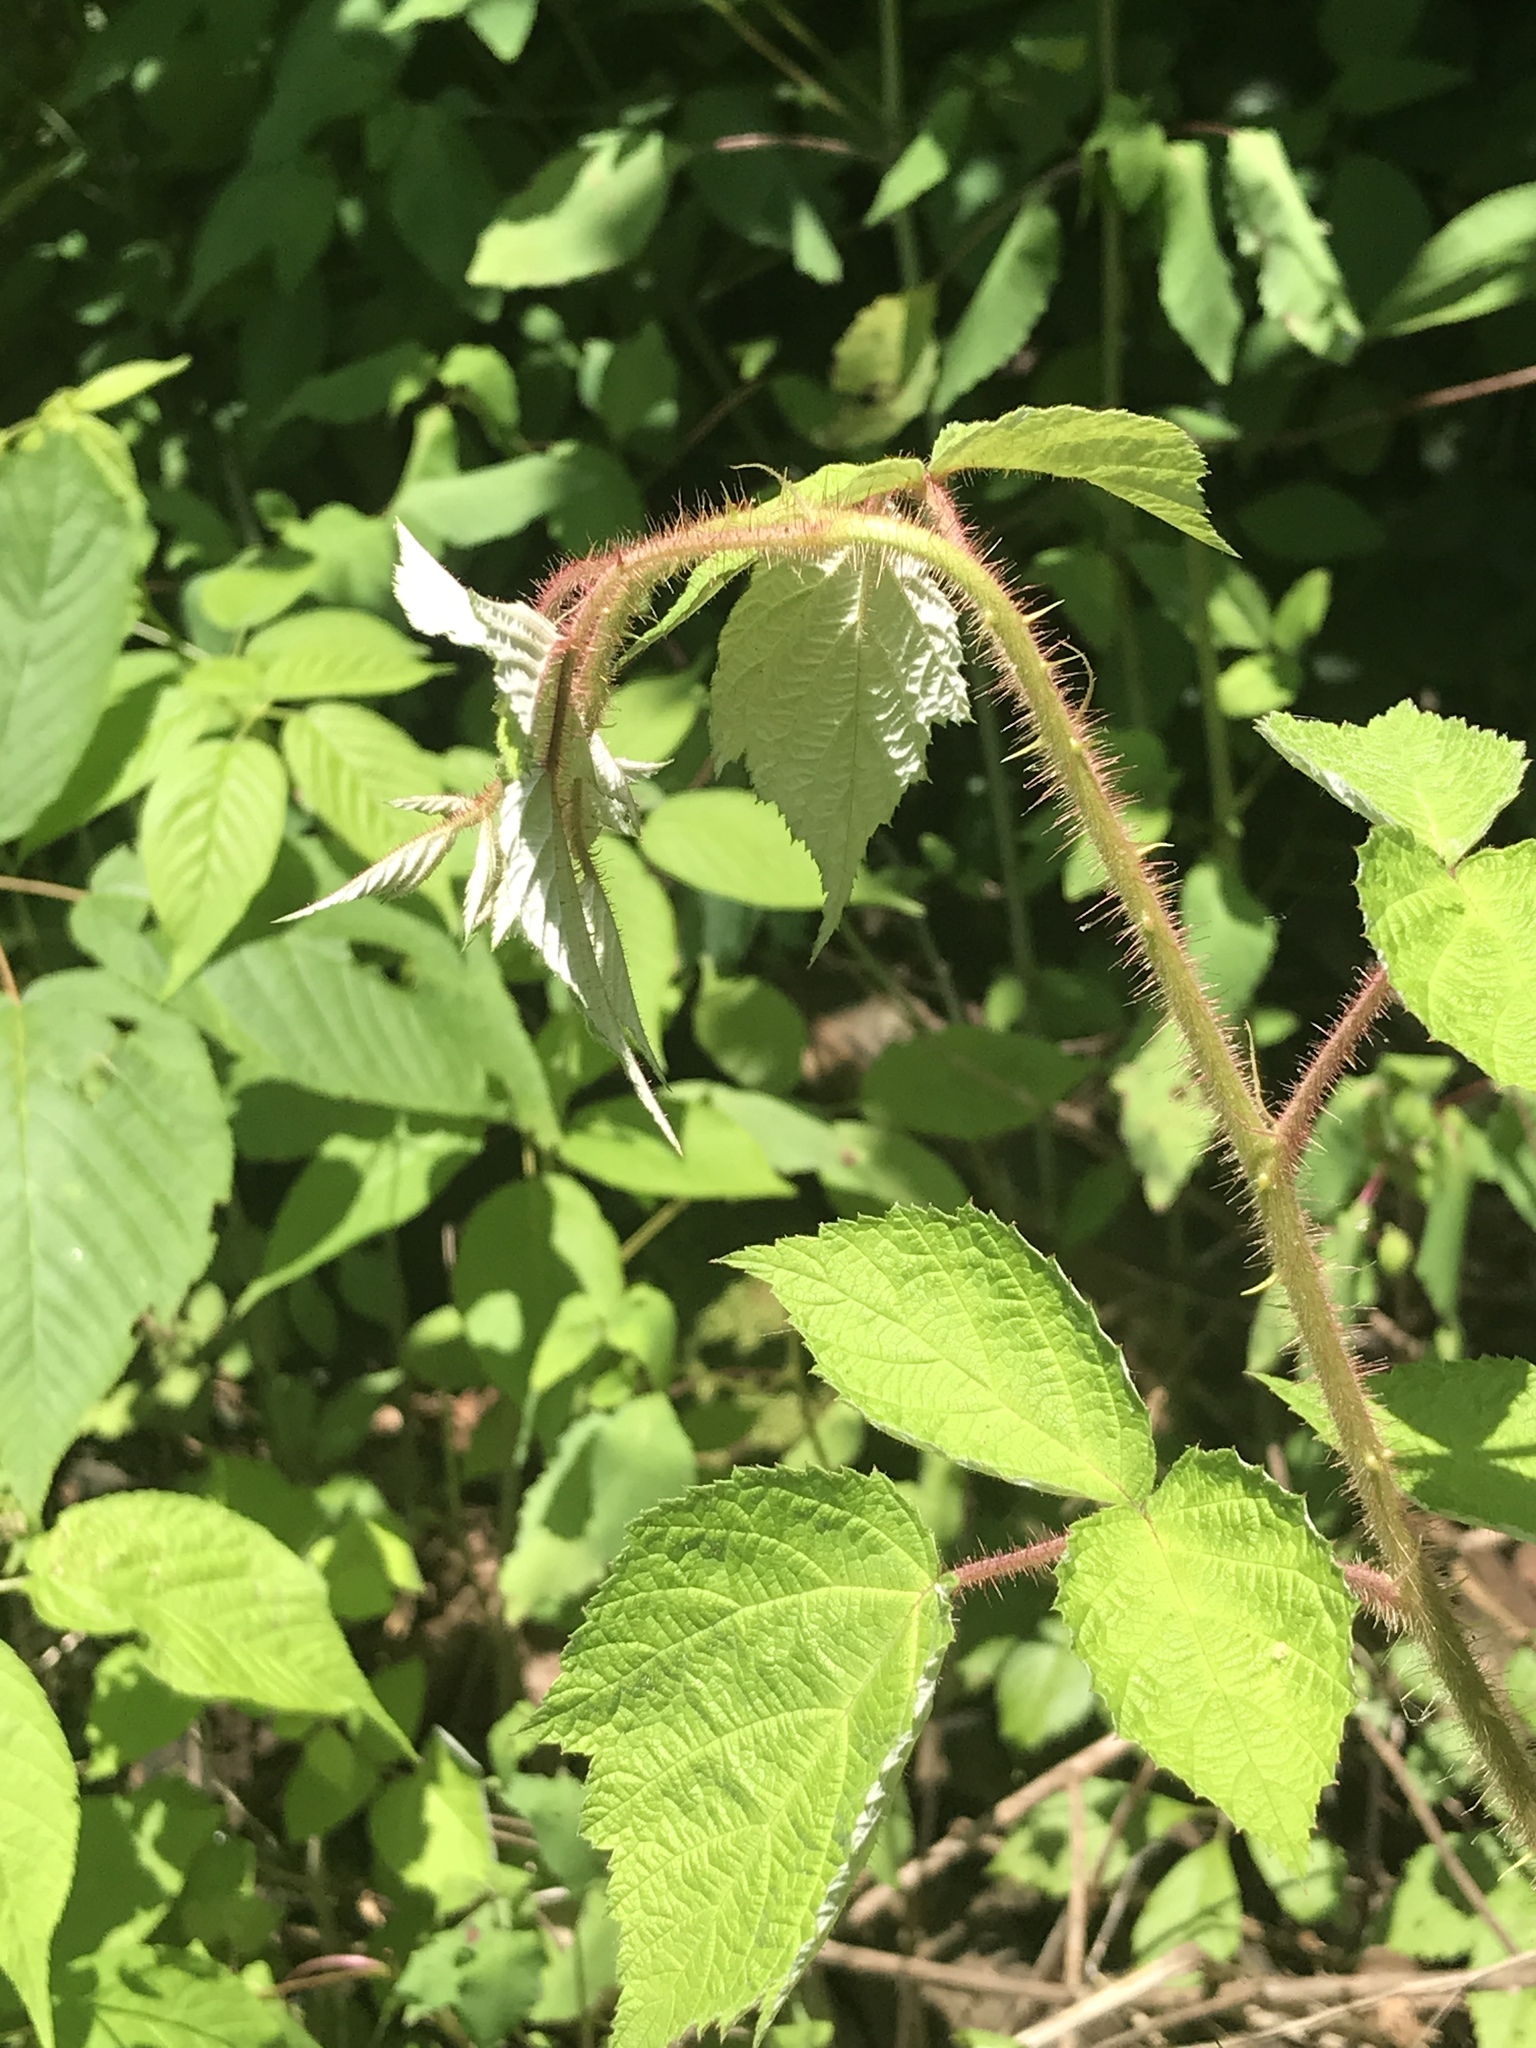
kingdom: Plantae
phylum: Tracheophyta
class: Magnoliopsida
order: Rosales
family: Rosaceae
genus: Rubus
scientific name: Rubus phoenicolasius
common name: Japanese wineberry
